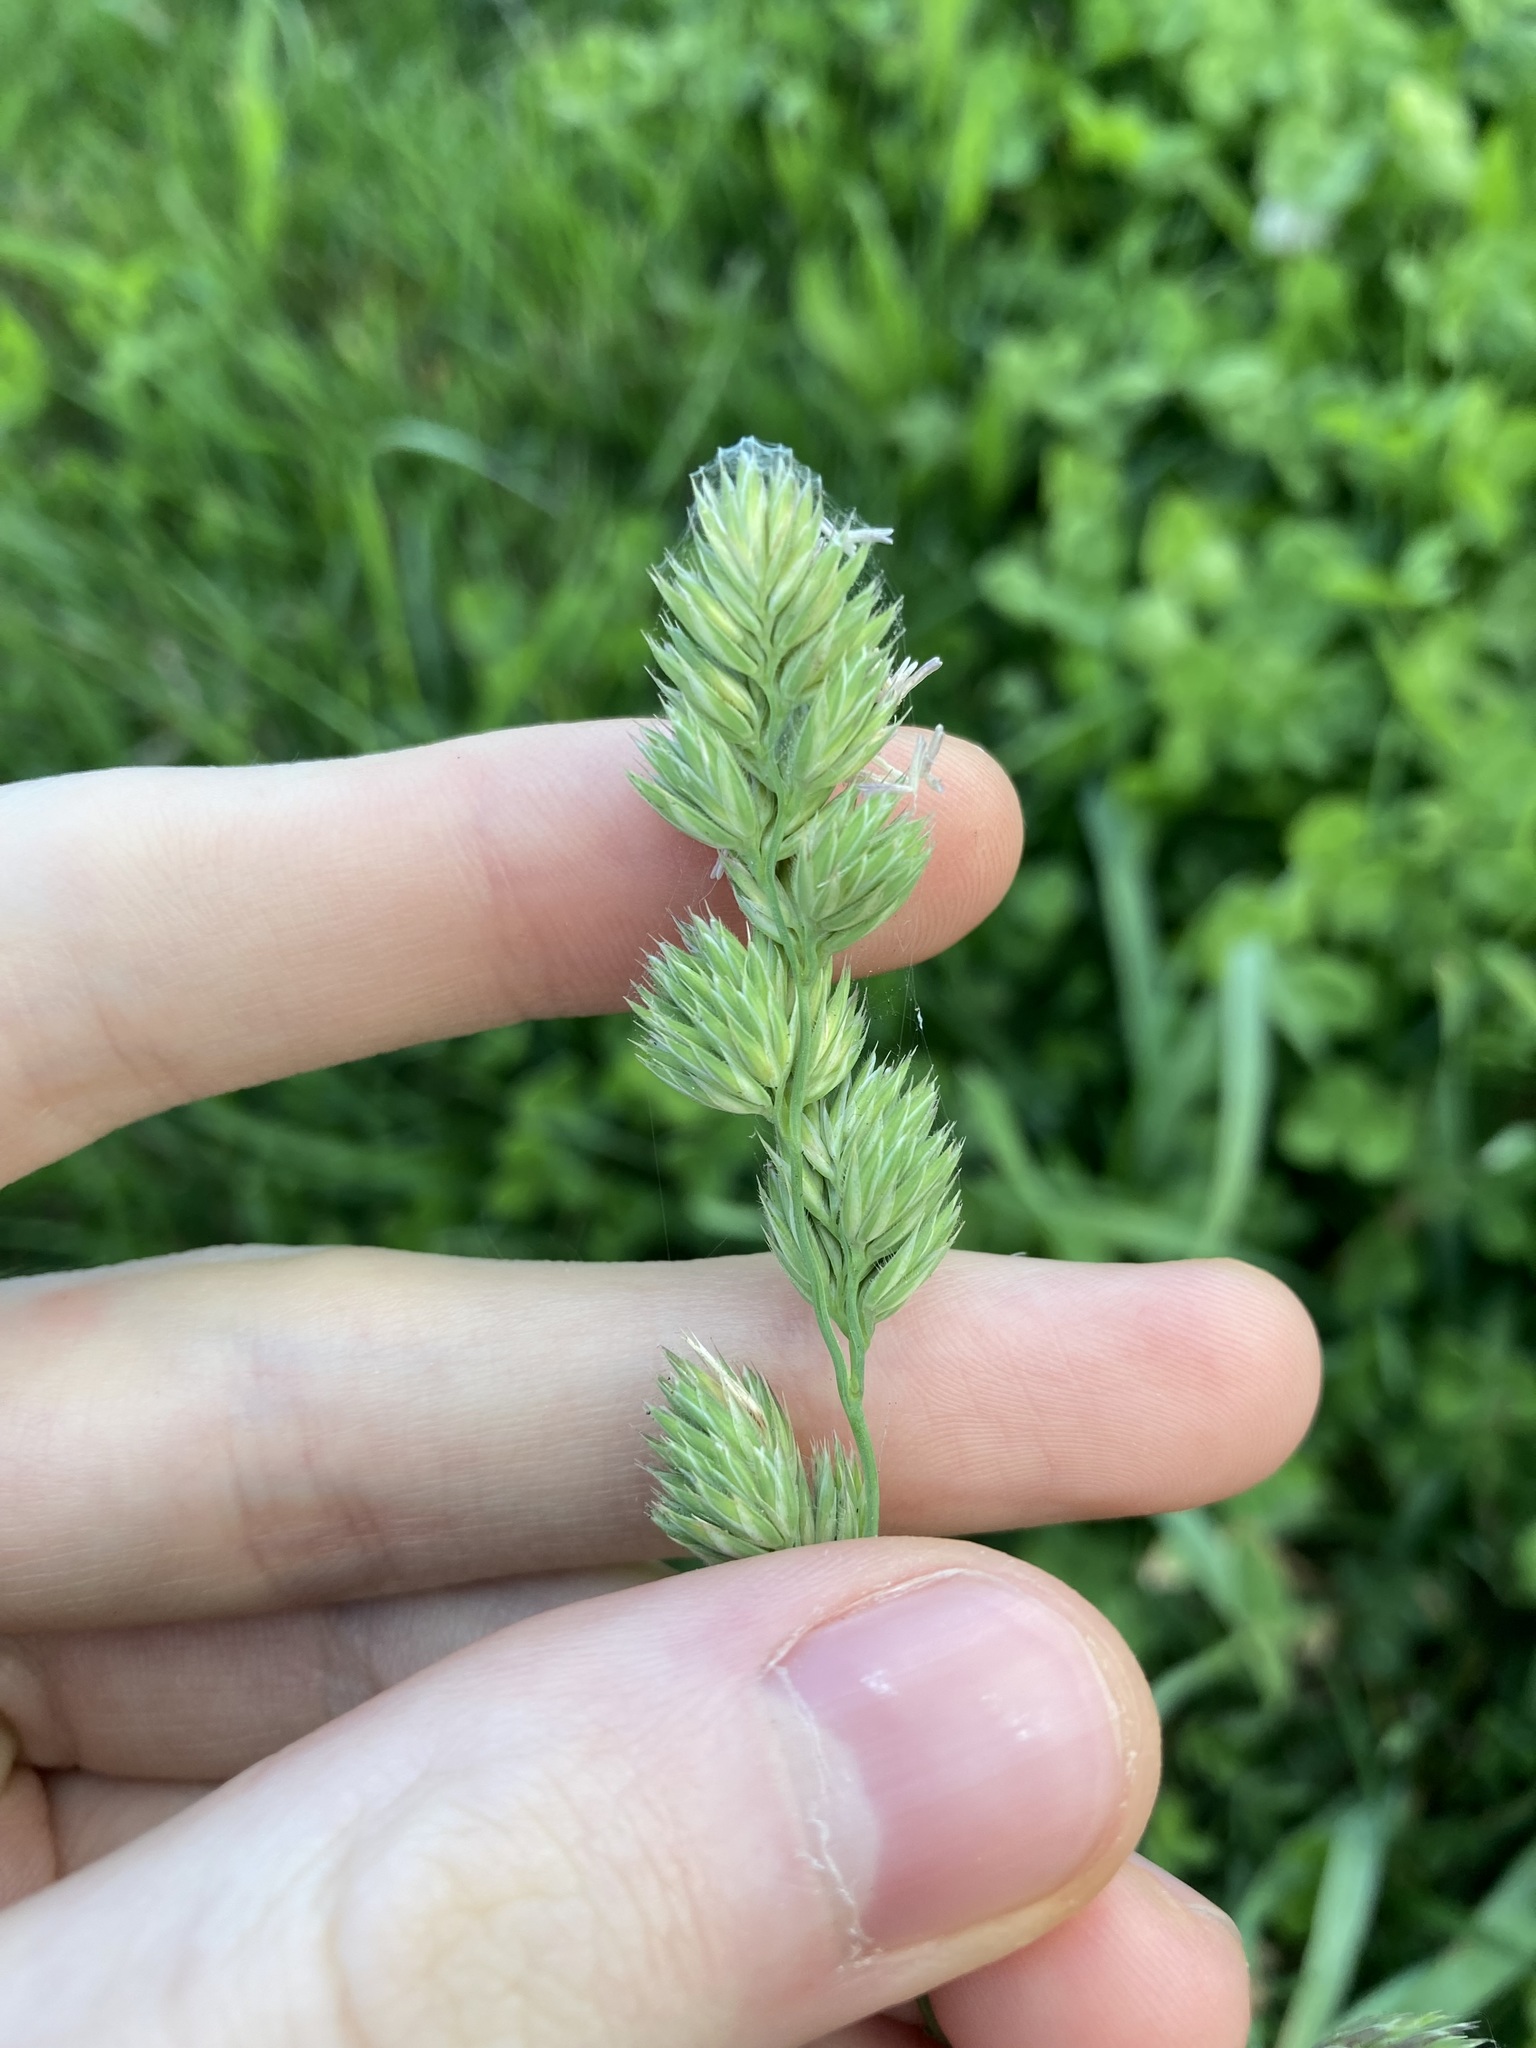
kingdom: Plantae
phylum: Tracheophyta
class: Liliopsida
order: Poales
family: Poaceae
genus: Dactylis
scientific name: Dactylis glomerata
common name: Orchardgrass
